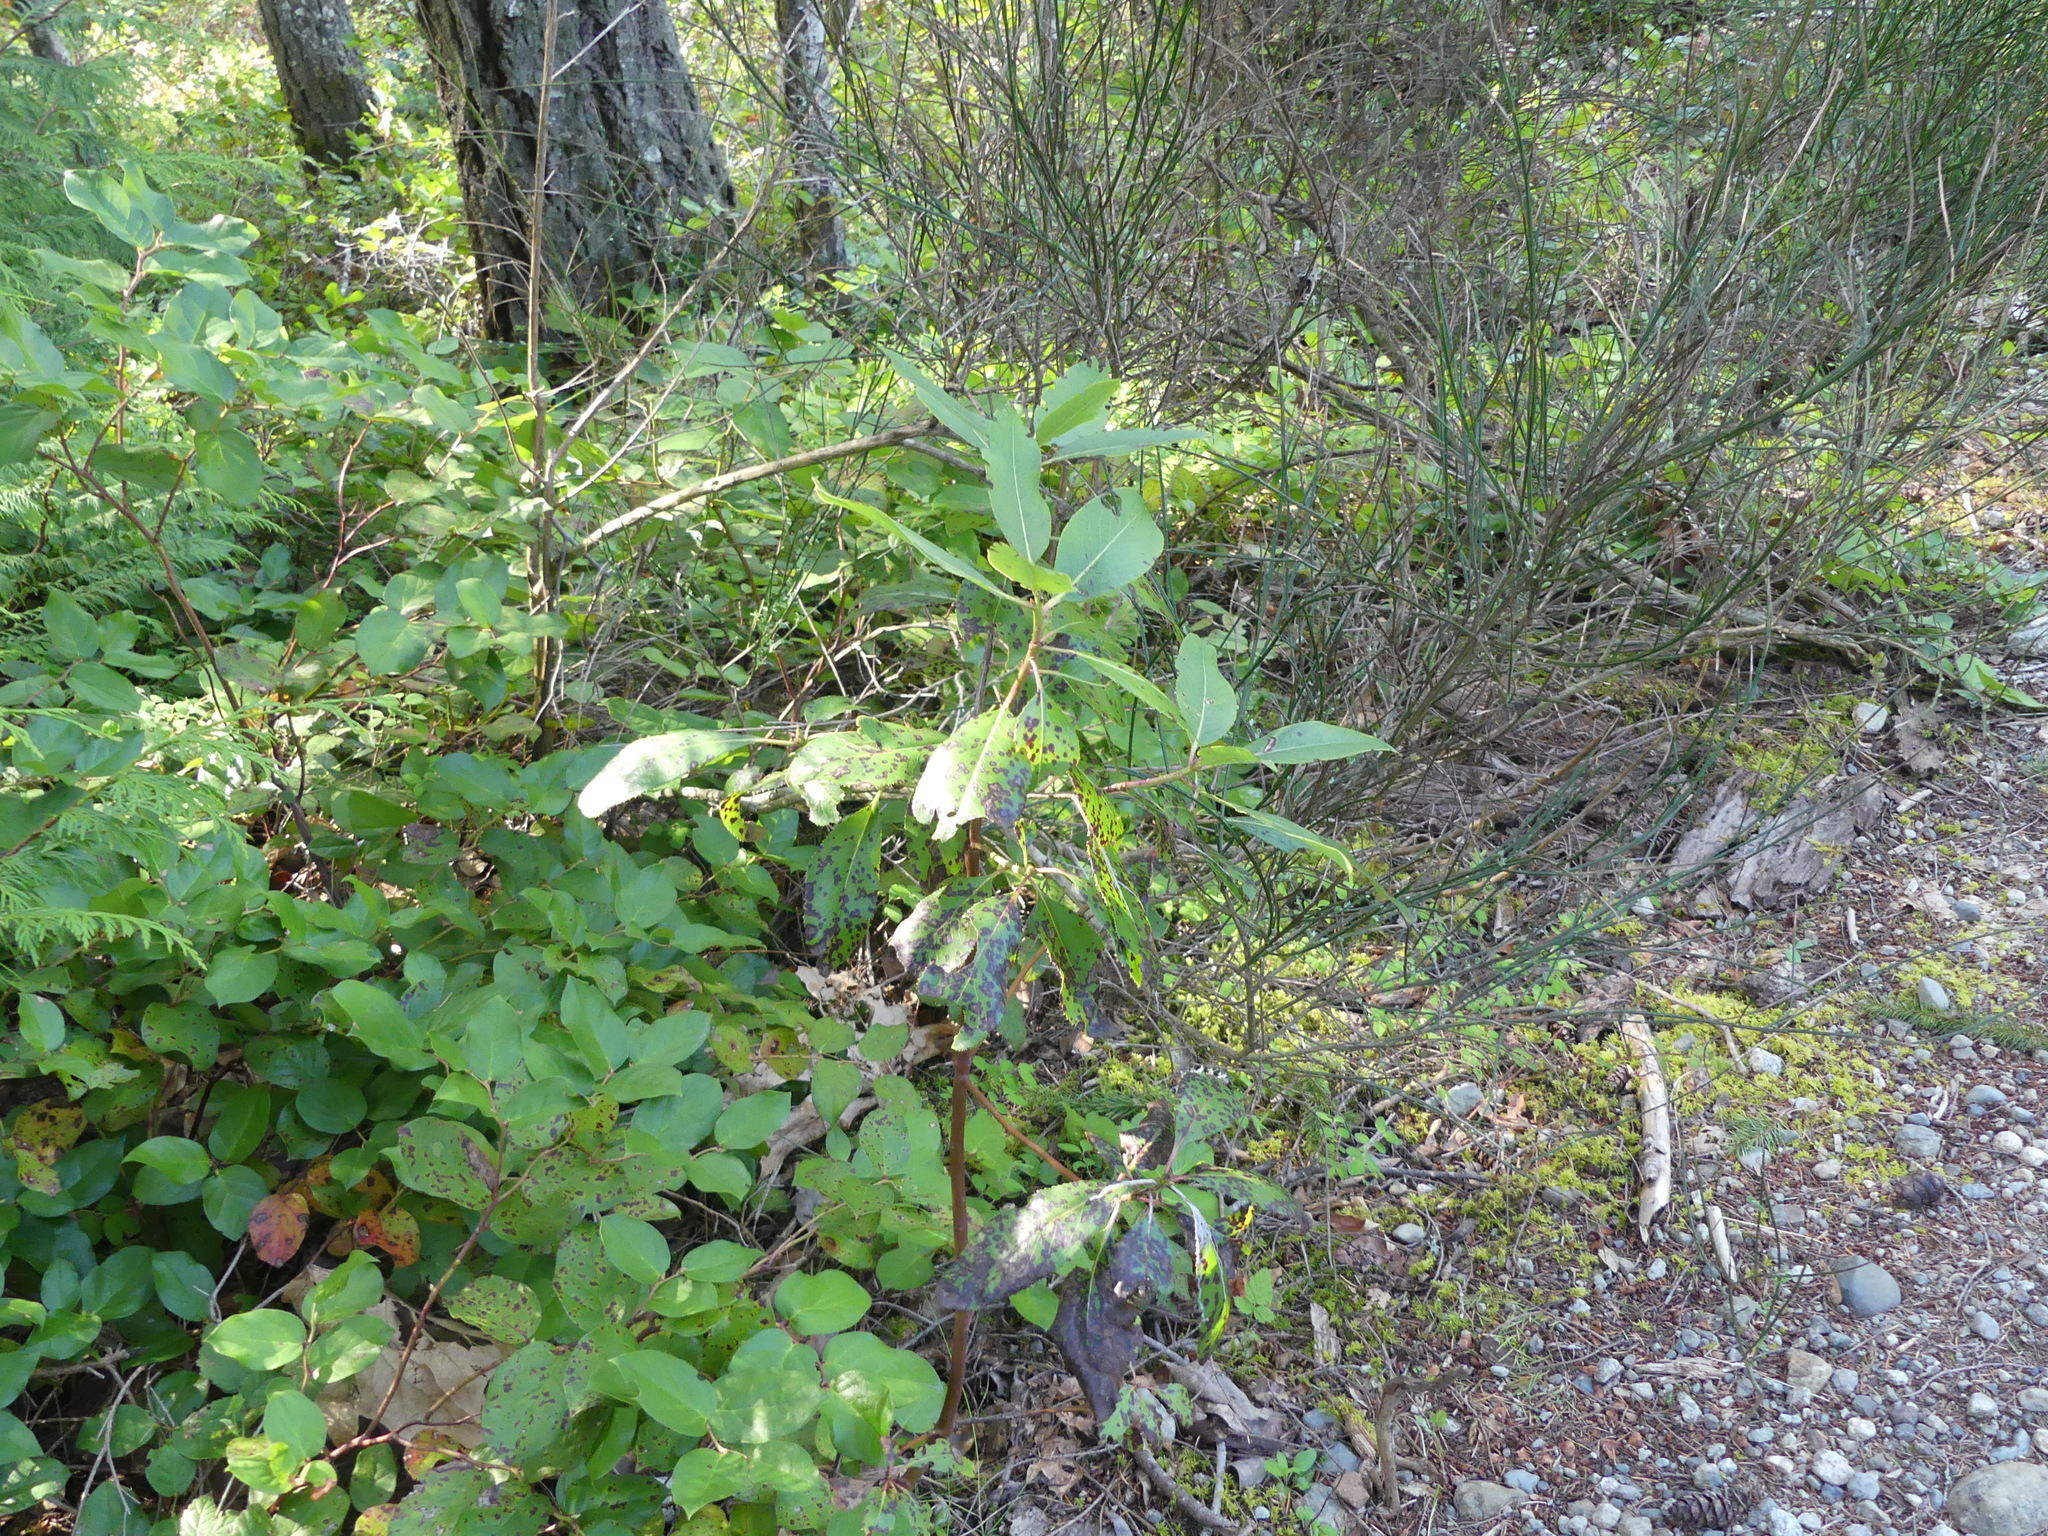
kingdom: Plantae
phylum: Tracheophyta
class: Magnoliopsida
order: Ericales
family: Ericaceae
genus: Arbutus
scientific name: Arbutus menziesii
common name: Pacific madrone
